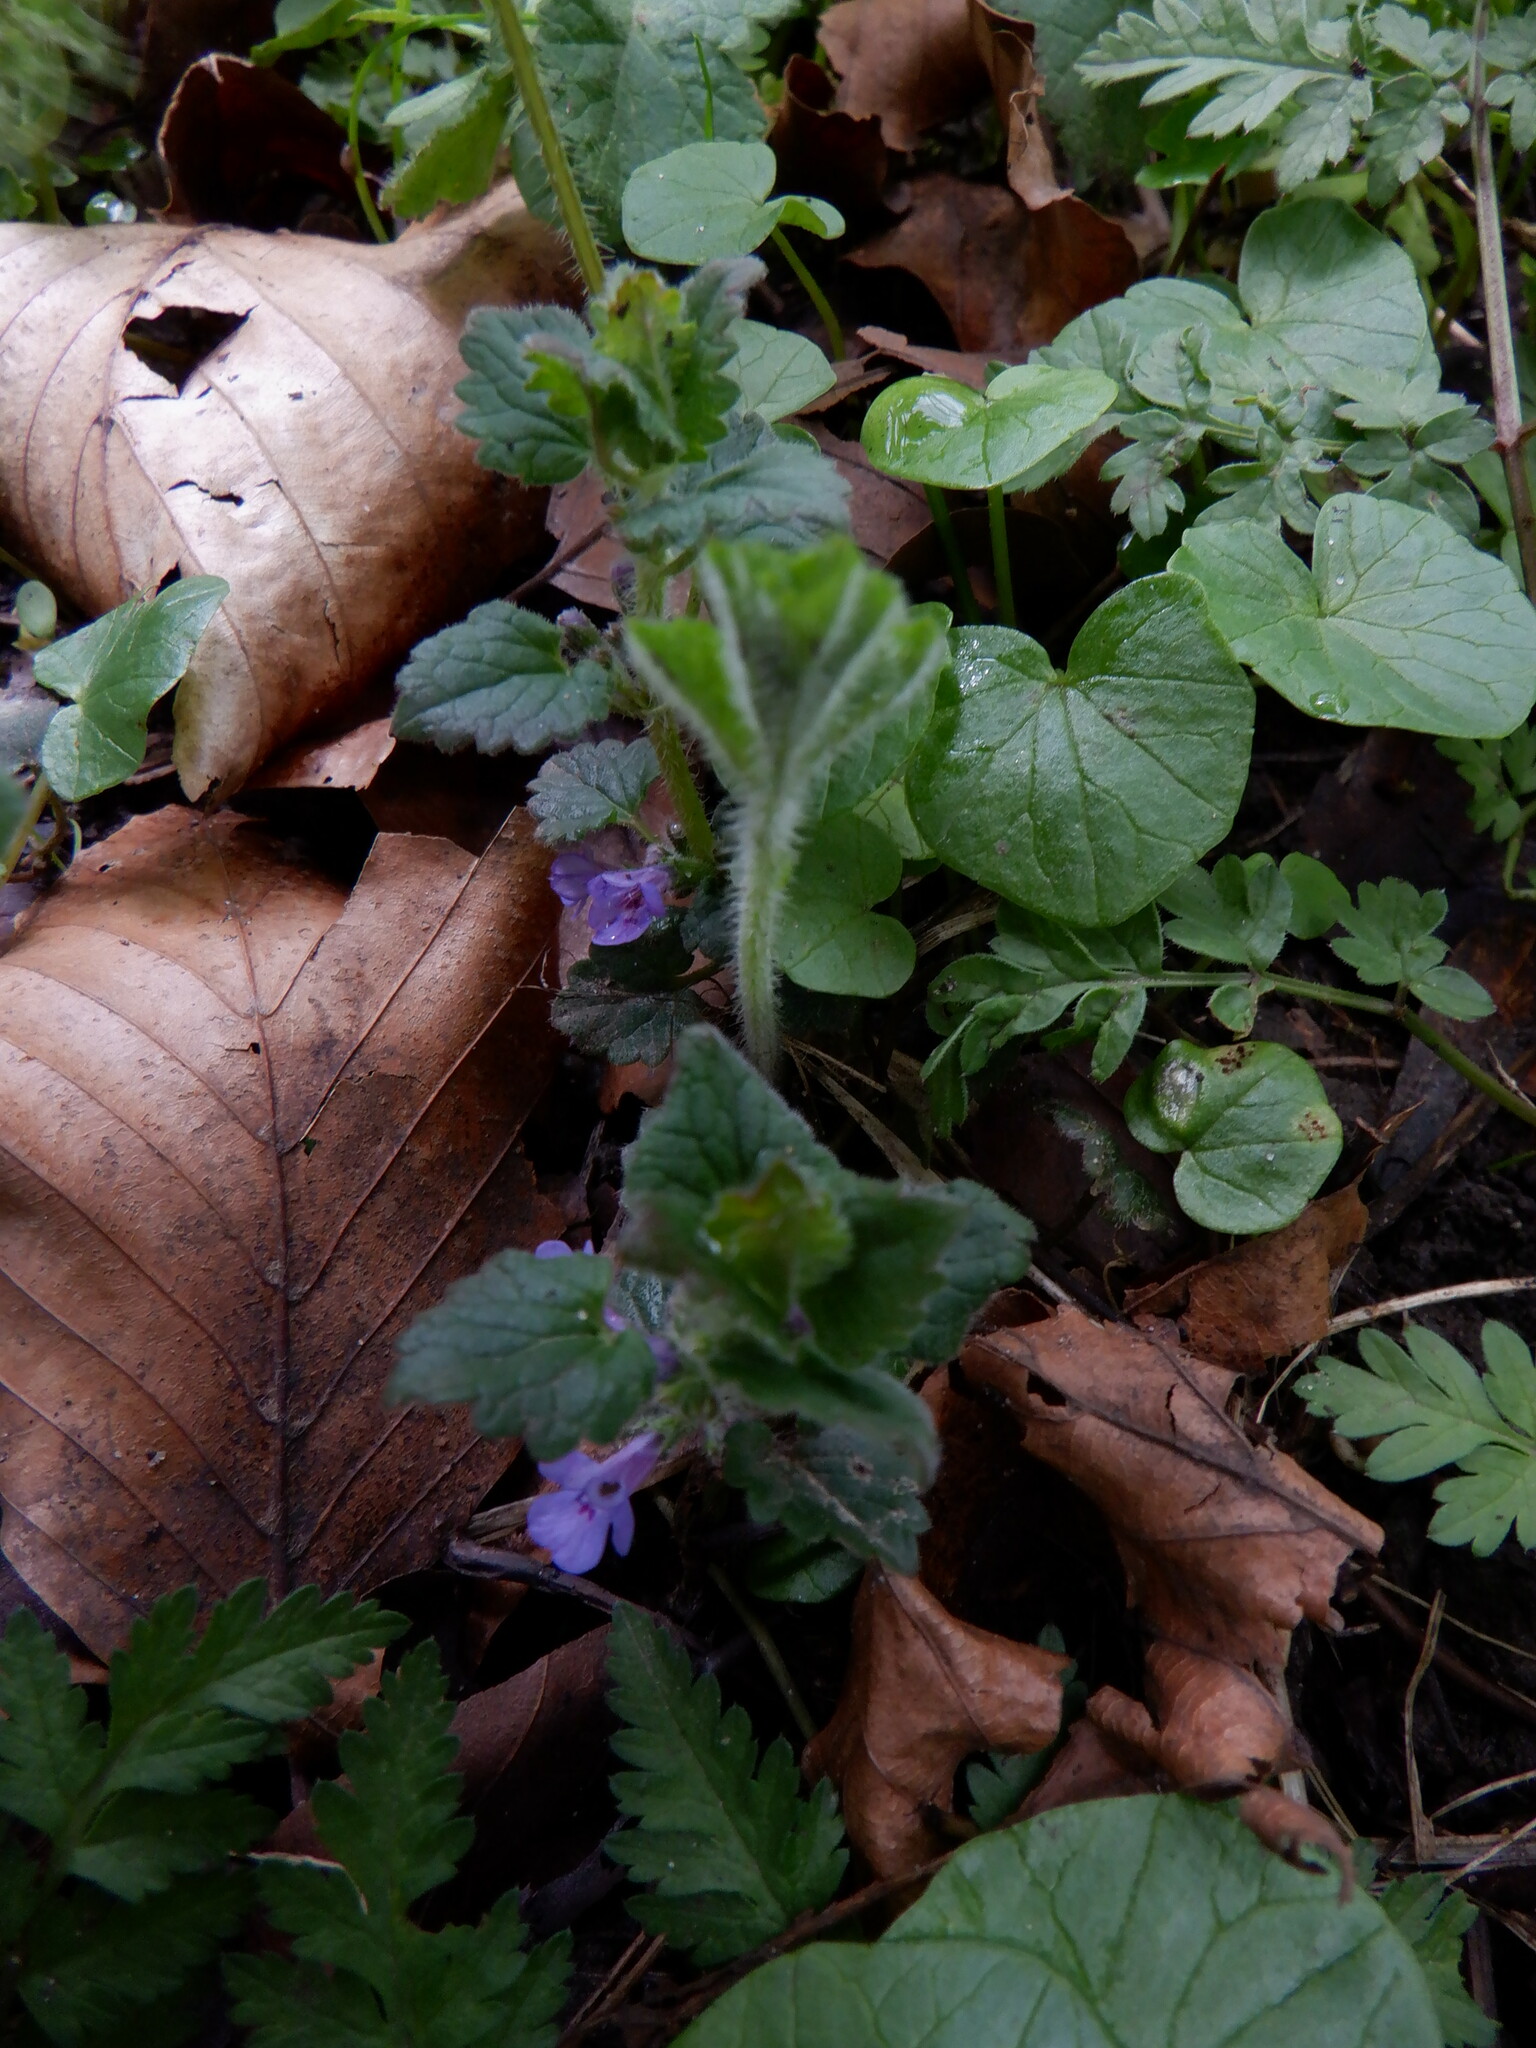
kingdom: Plantae
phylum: Tracheophyta
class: Magnoliopsida
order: Lamiales
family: Lamiaceae
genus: Glechoma
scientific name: Glechoma hederacea
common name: Ground ivy
